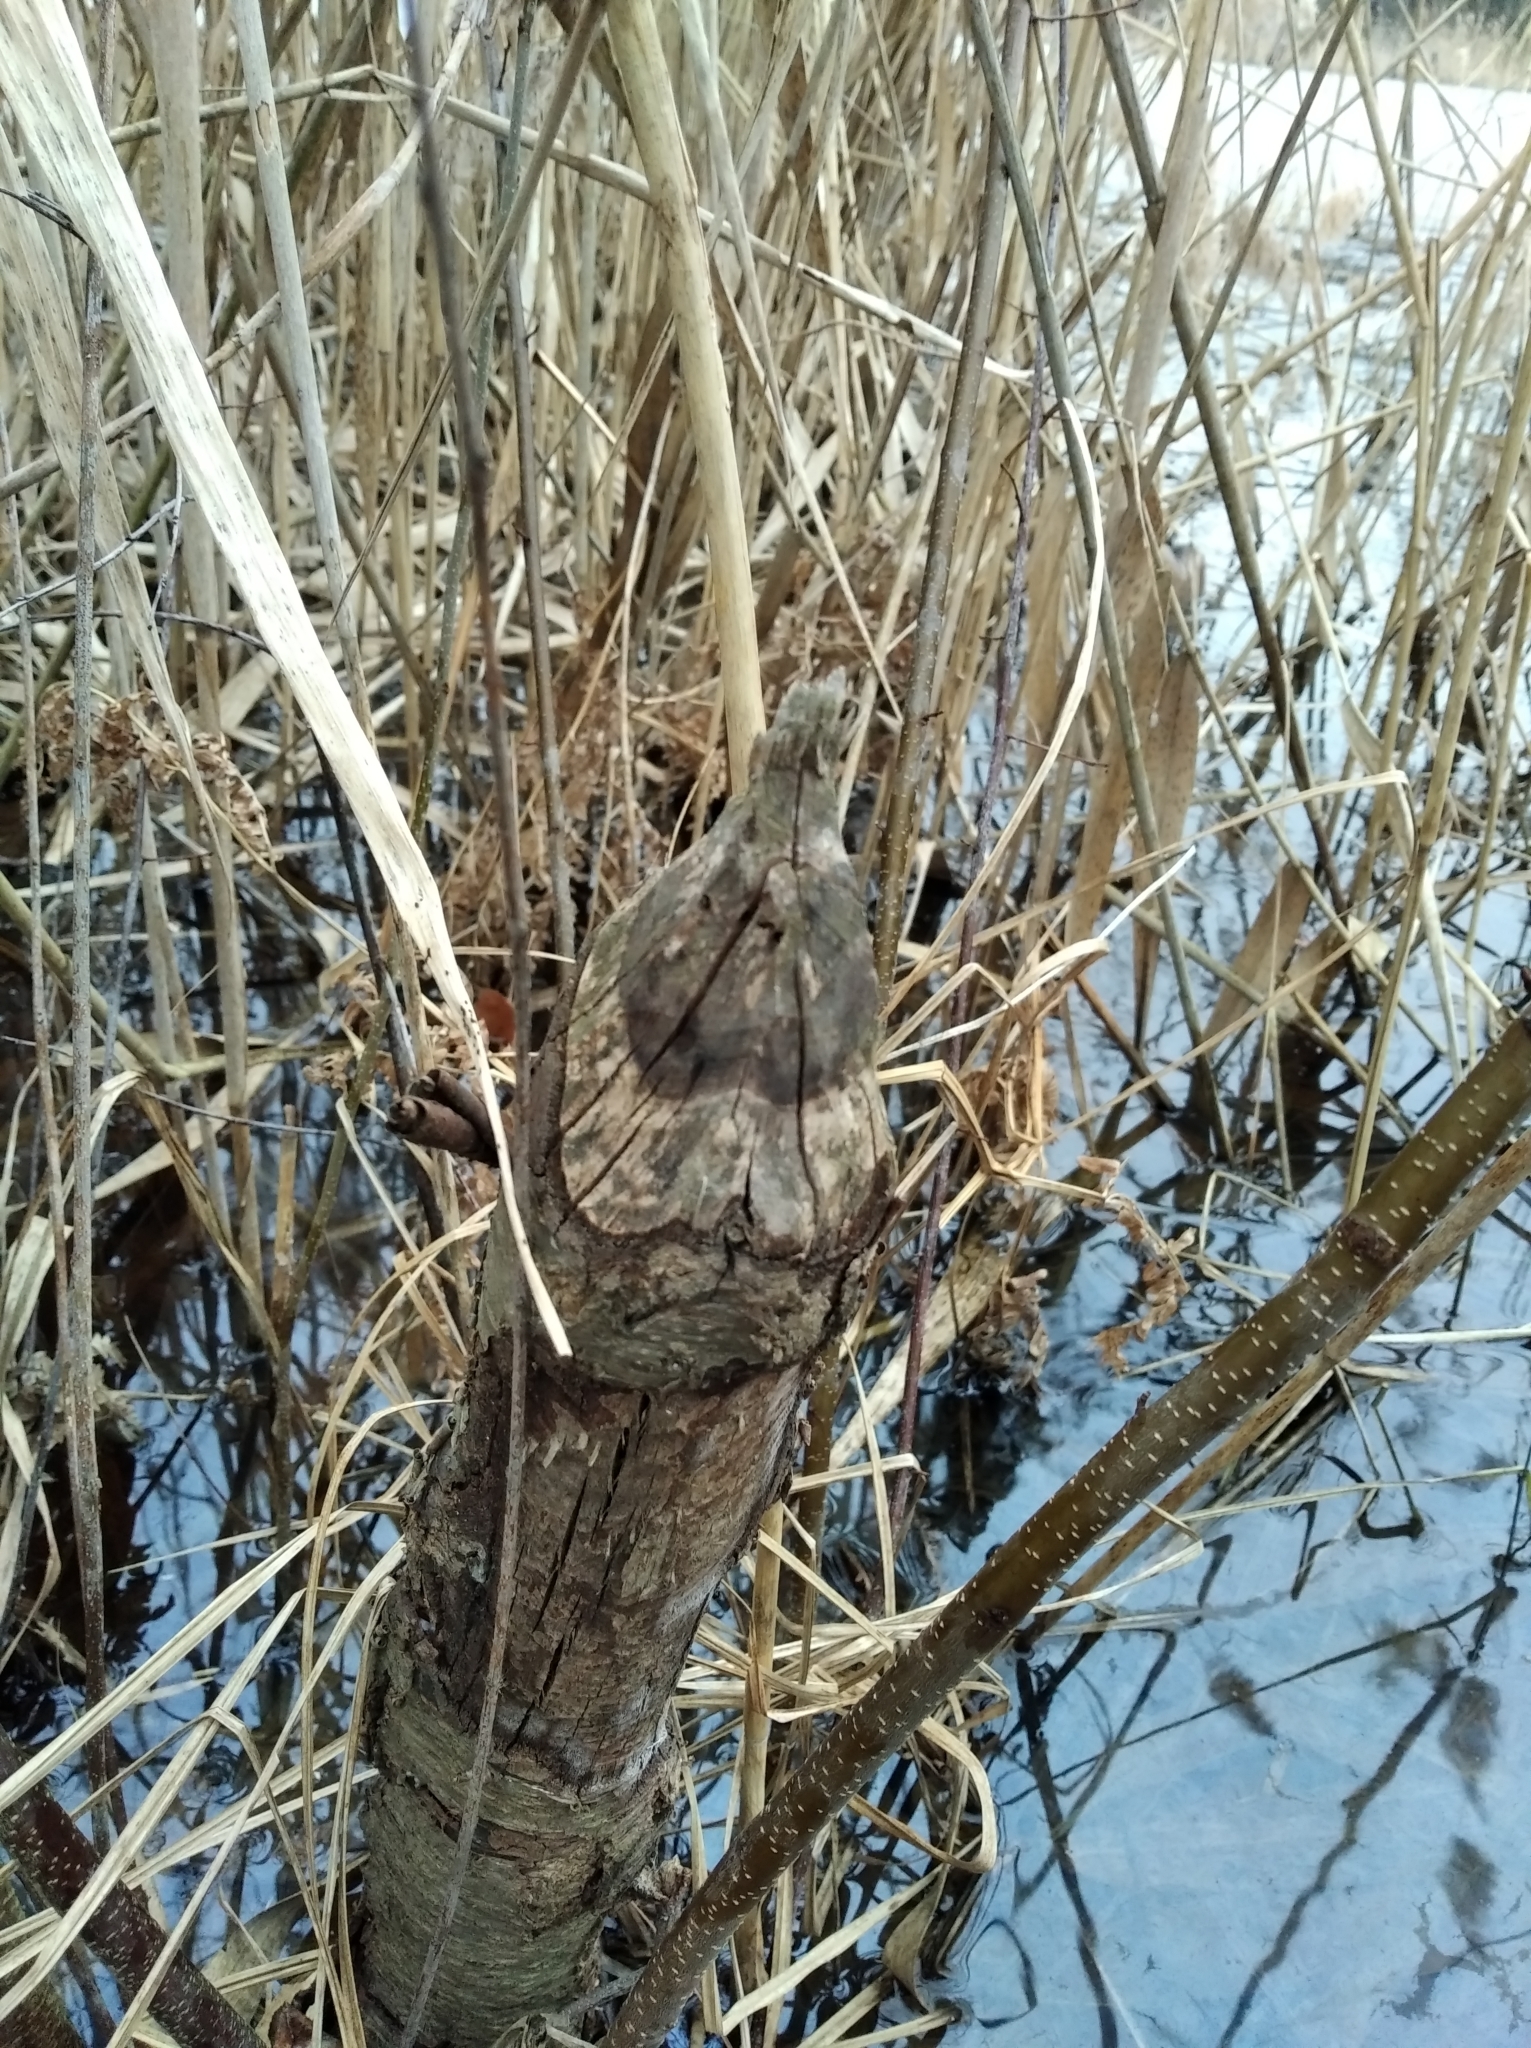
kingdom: Animalia
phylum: Chordata
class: Mammalia
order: Rodentia
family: Castoridae
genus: Castor
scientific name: Castor fiber
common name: Eurasian beaver
